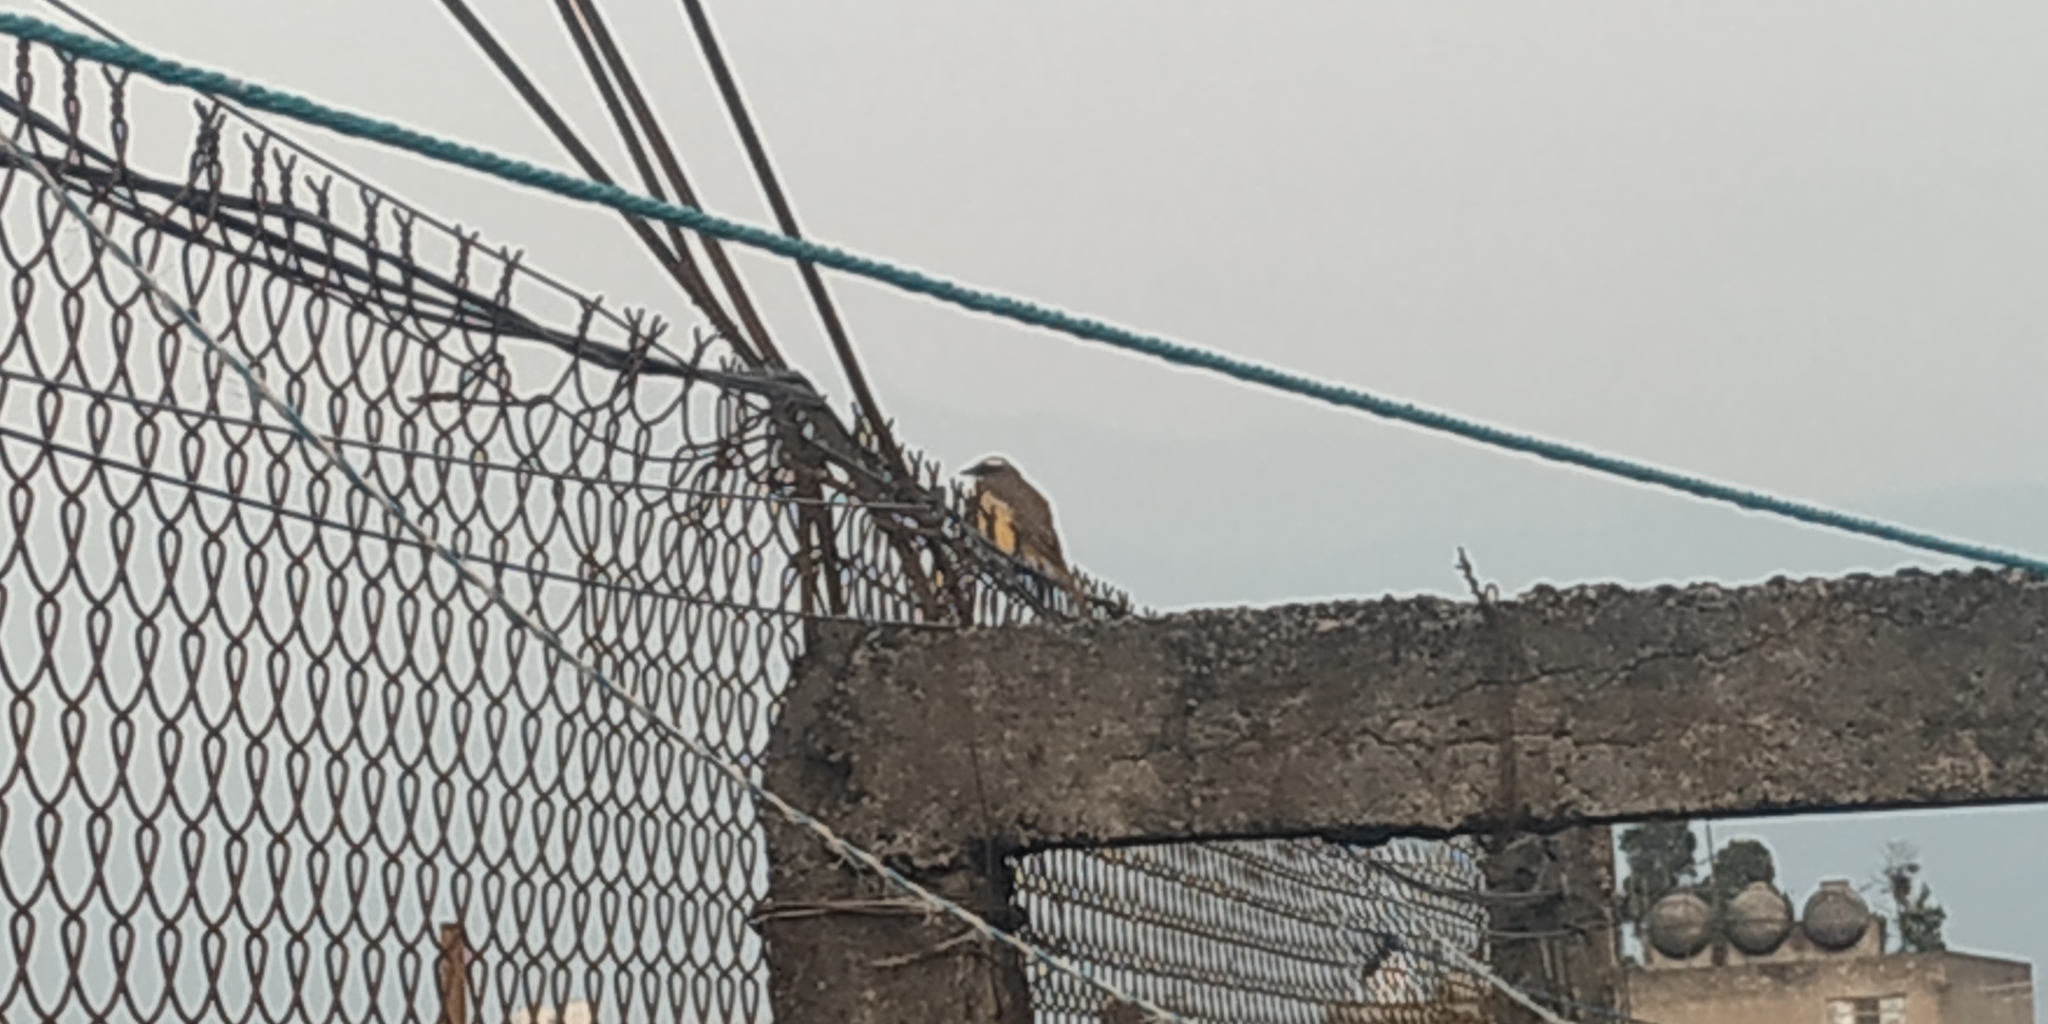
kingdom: Animalia
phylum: Chordata
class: Aves
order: Passeriformes
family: Tyrannidae
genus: Myiozetetes
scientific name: Myiozetetes similis
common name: Social flycatcher
